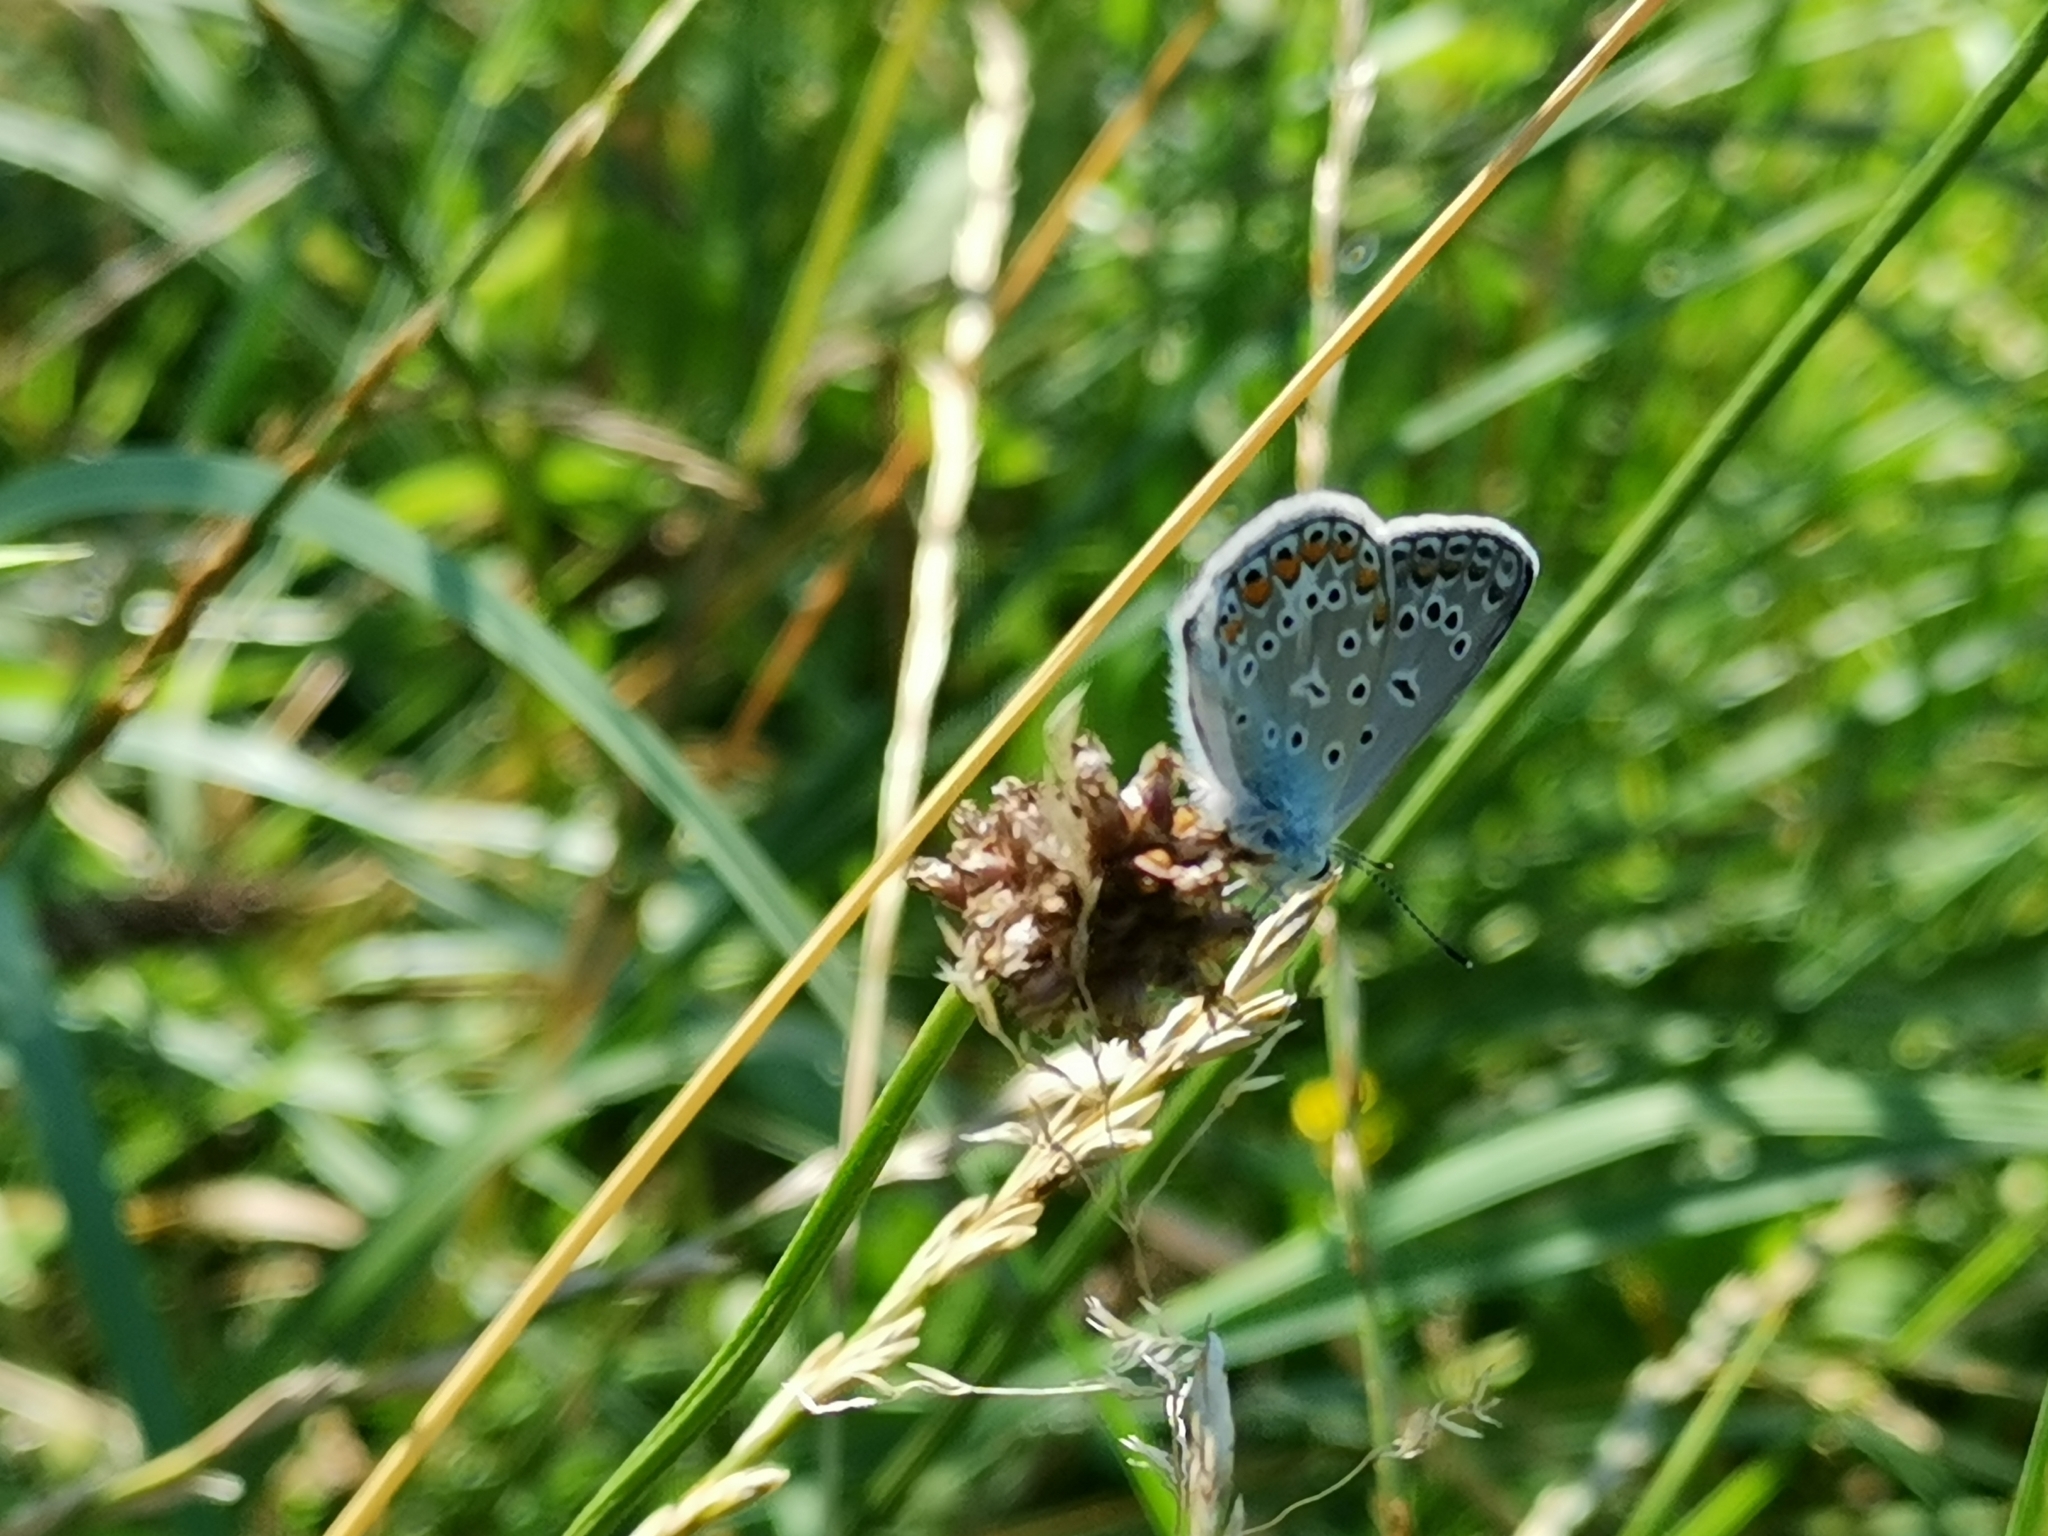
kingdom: Animalia
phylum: Arthropoda
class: Insecta
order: Lepidoptera
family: Lycaenidae
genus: Polyommatus
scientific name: Polyommatus icarus
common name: Common blue
